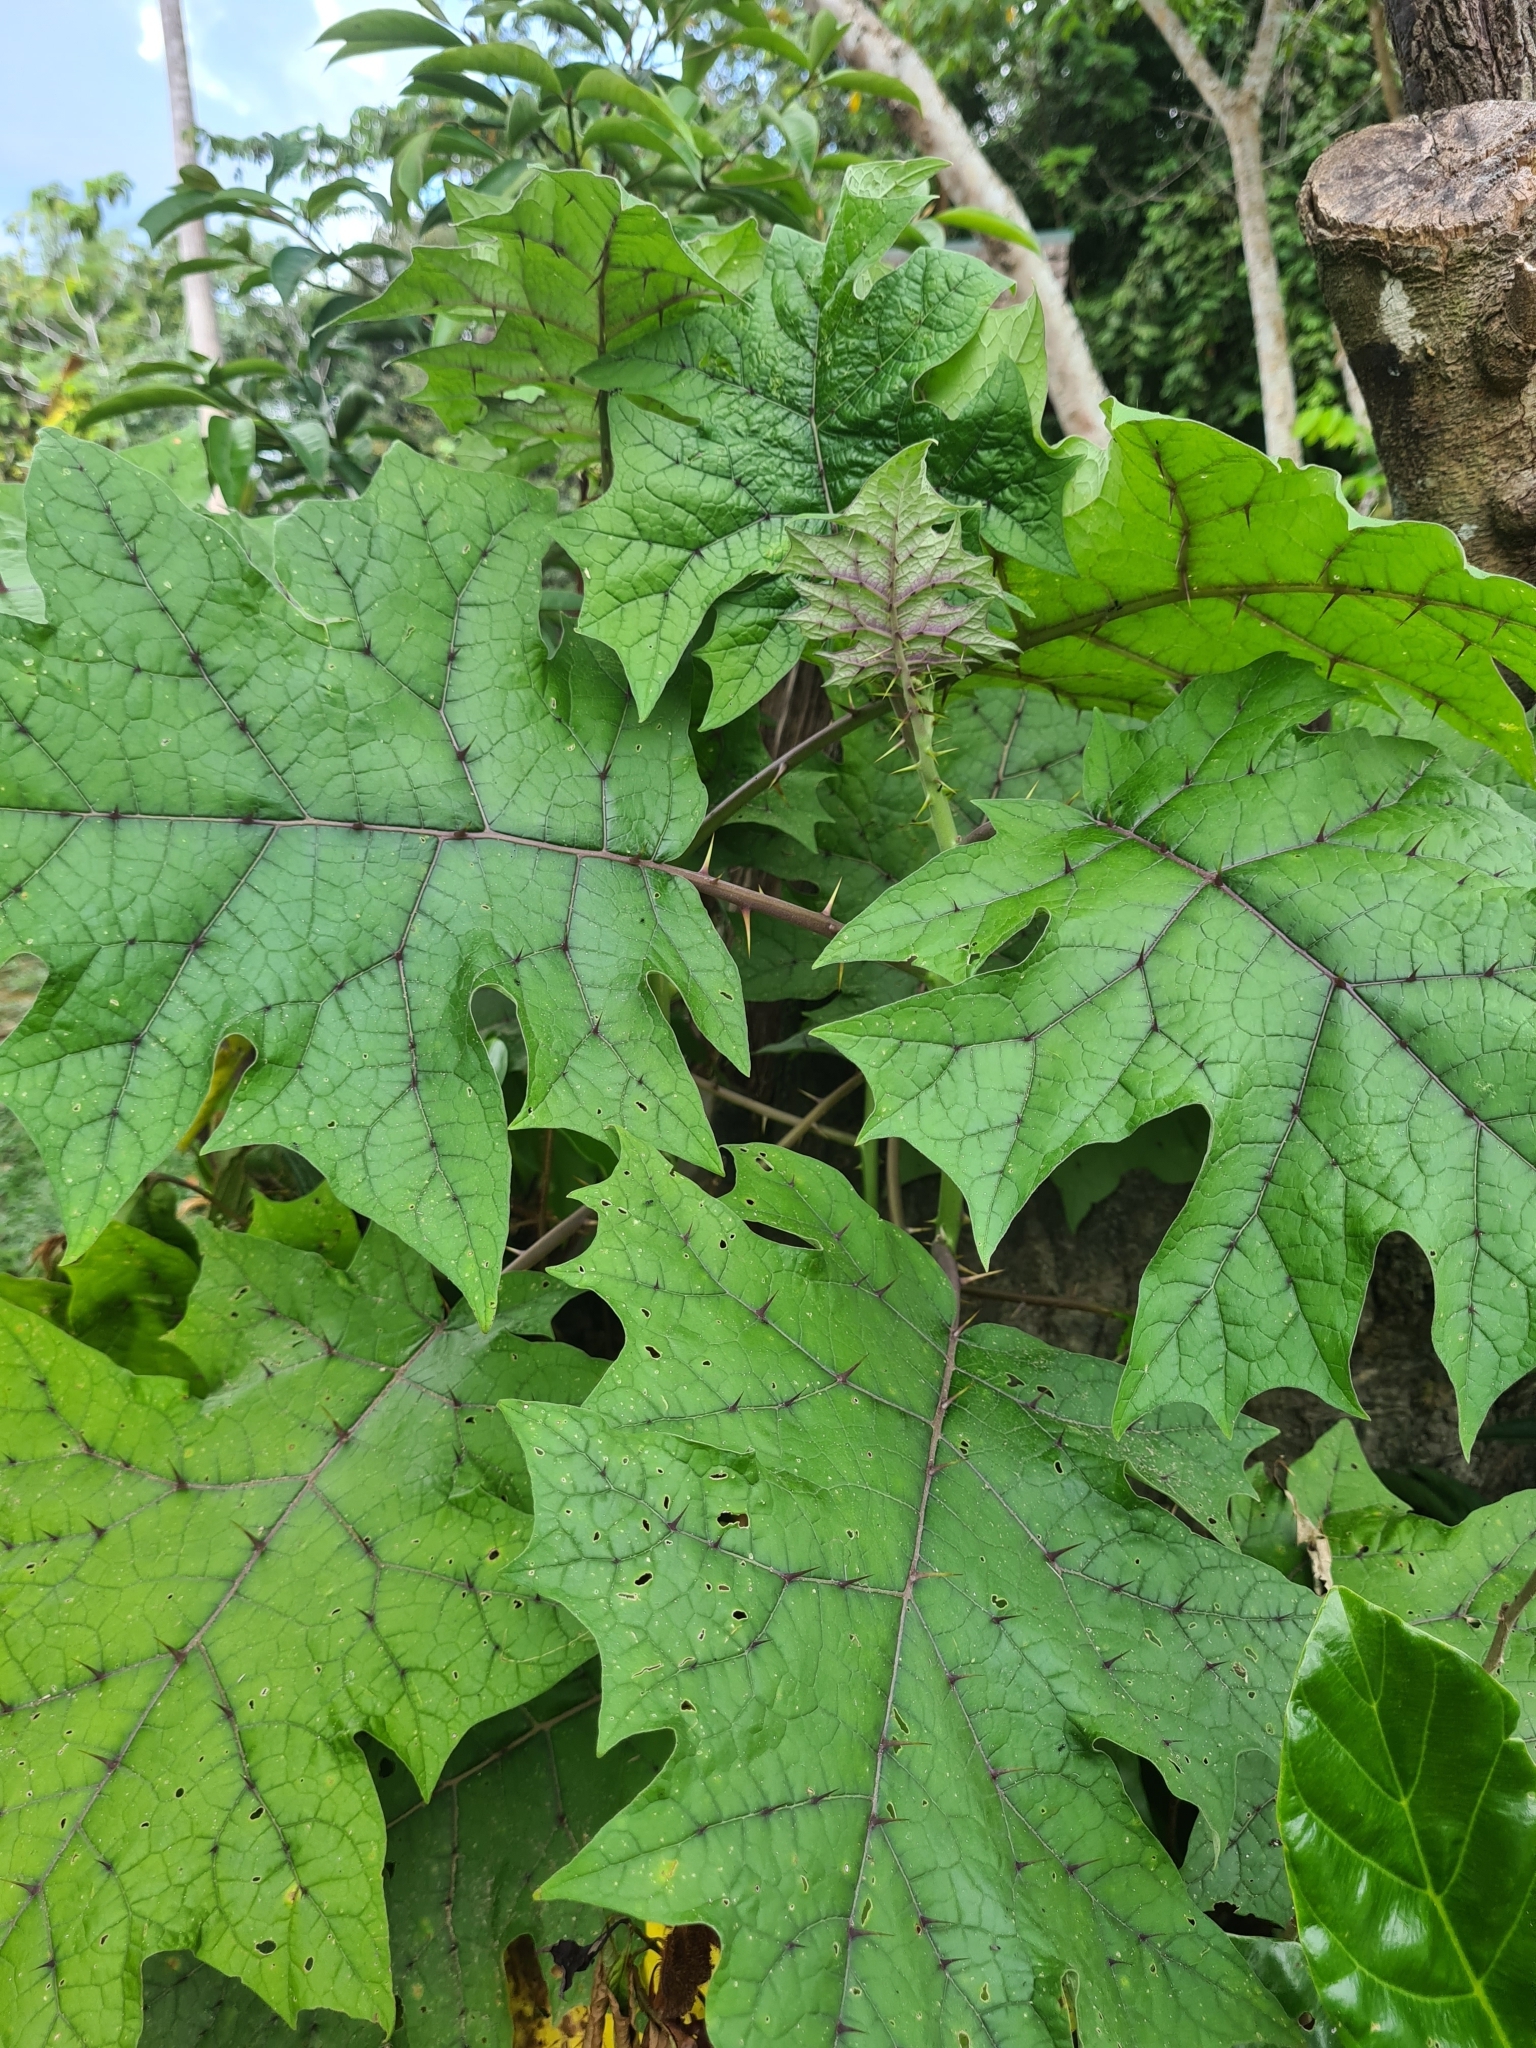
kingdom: Plantae
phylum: Tracheophyta
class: Magnoliopsida
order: Solanales
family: Solanaceae
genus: Solanum
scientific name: Solanum
